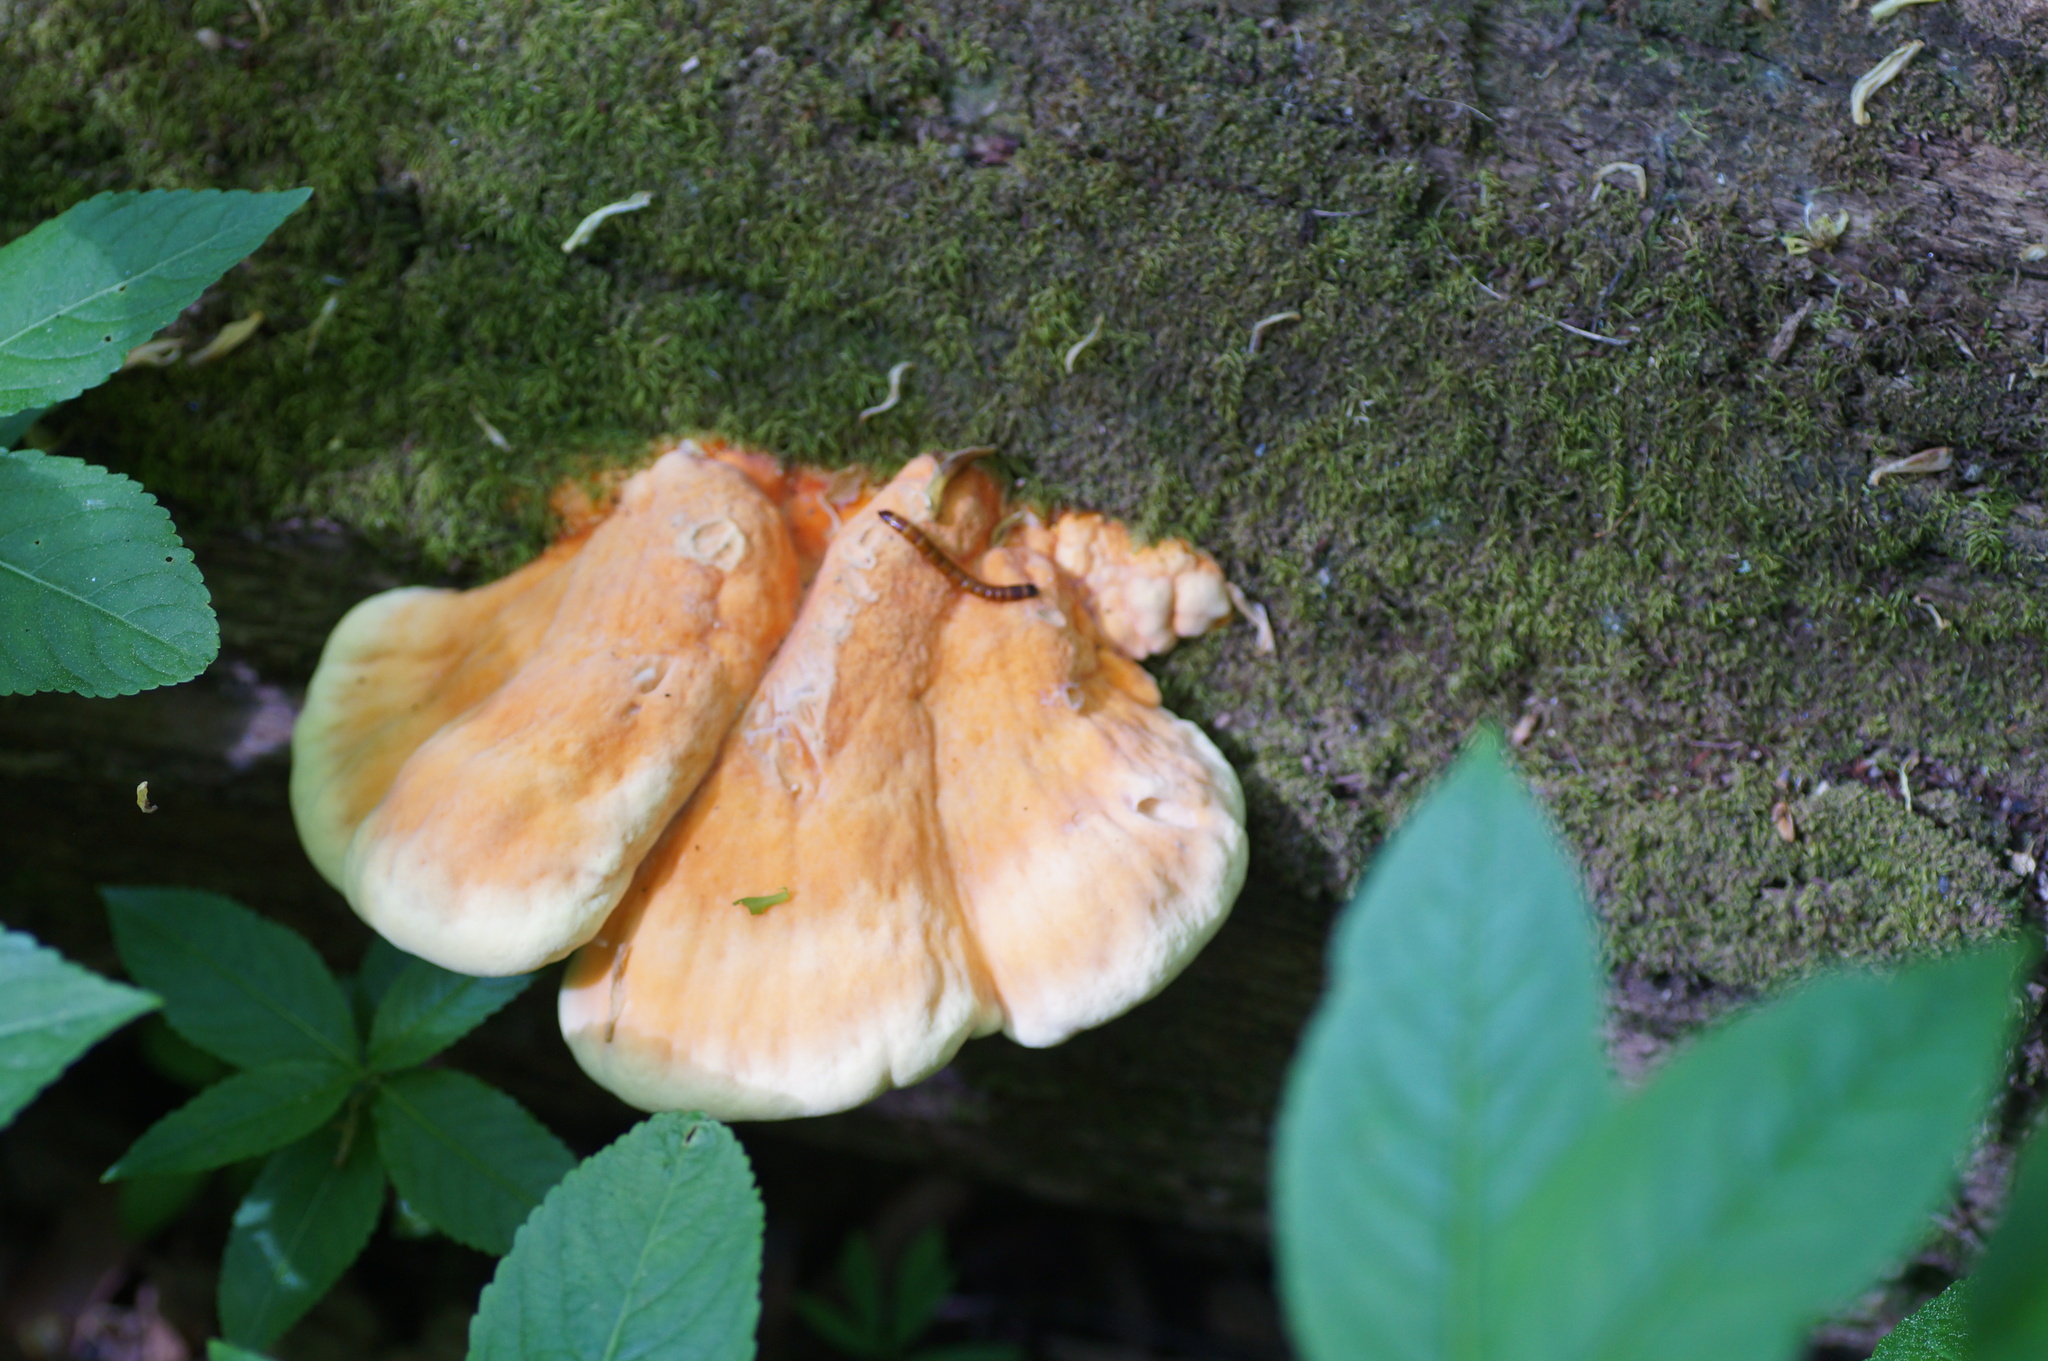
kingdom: Fungi
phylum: Basidiomycota
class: Agaricomycetes
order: Polyporales
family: Laetiporaceae
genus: Laetiporus
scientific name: Laetiporus sulphureus
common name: Chicken of the woods
